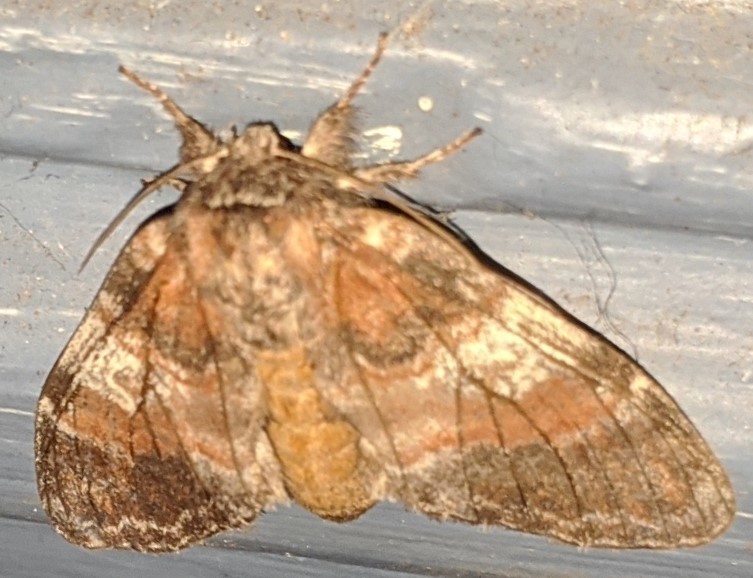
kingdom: Animalia
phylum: Arthropoda
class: Insecta
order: Lepidoptera
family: Notodontidae
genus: Peridea
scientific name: Peridea ferruginea
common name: Chocolate prominent
